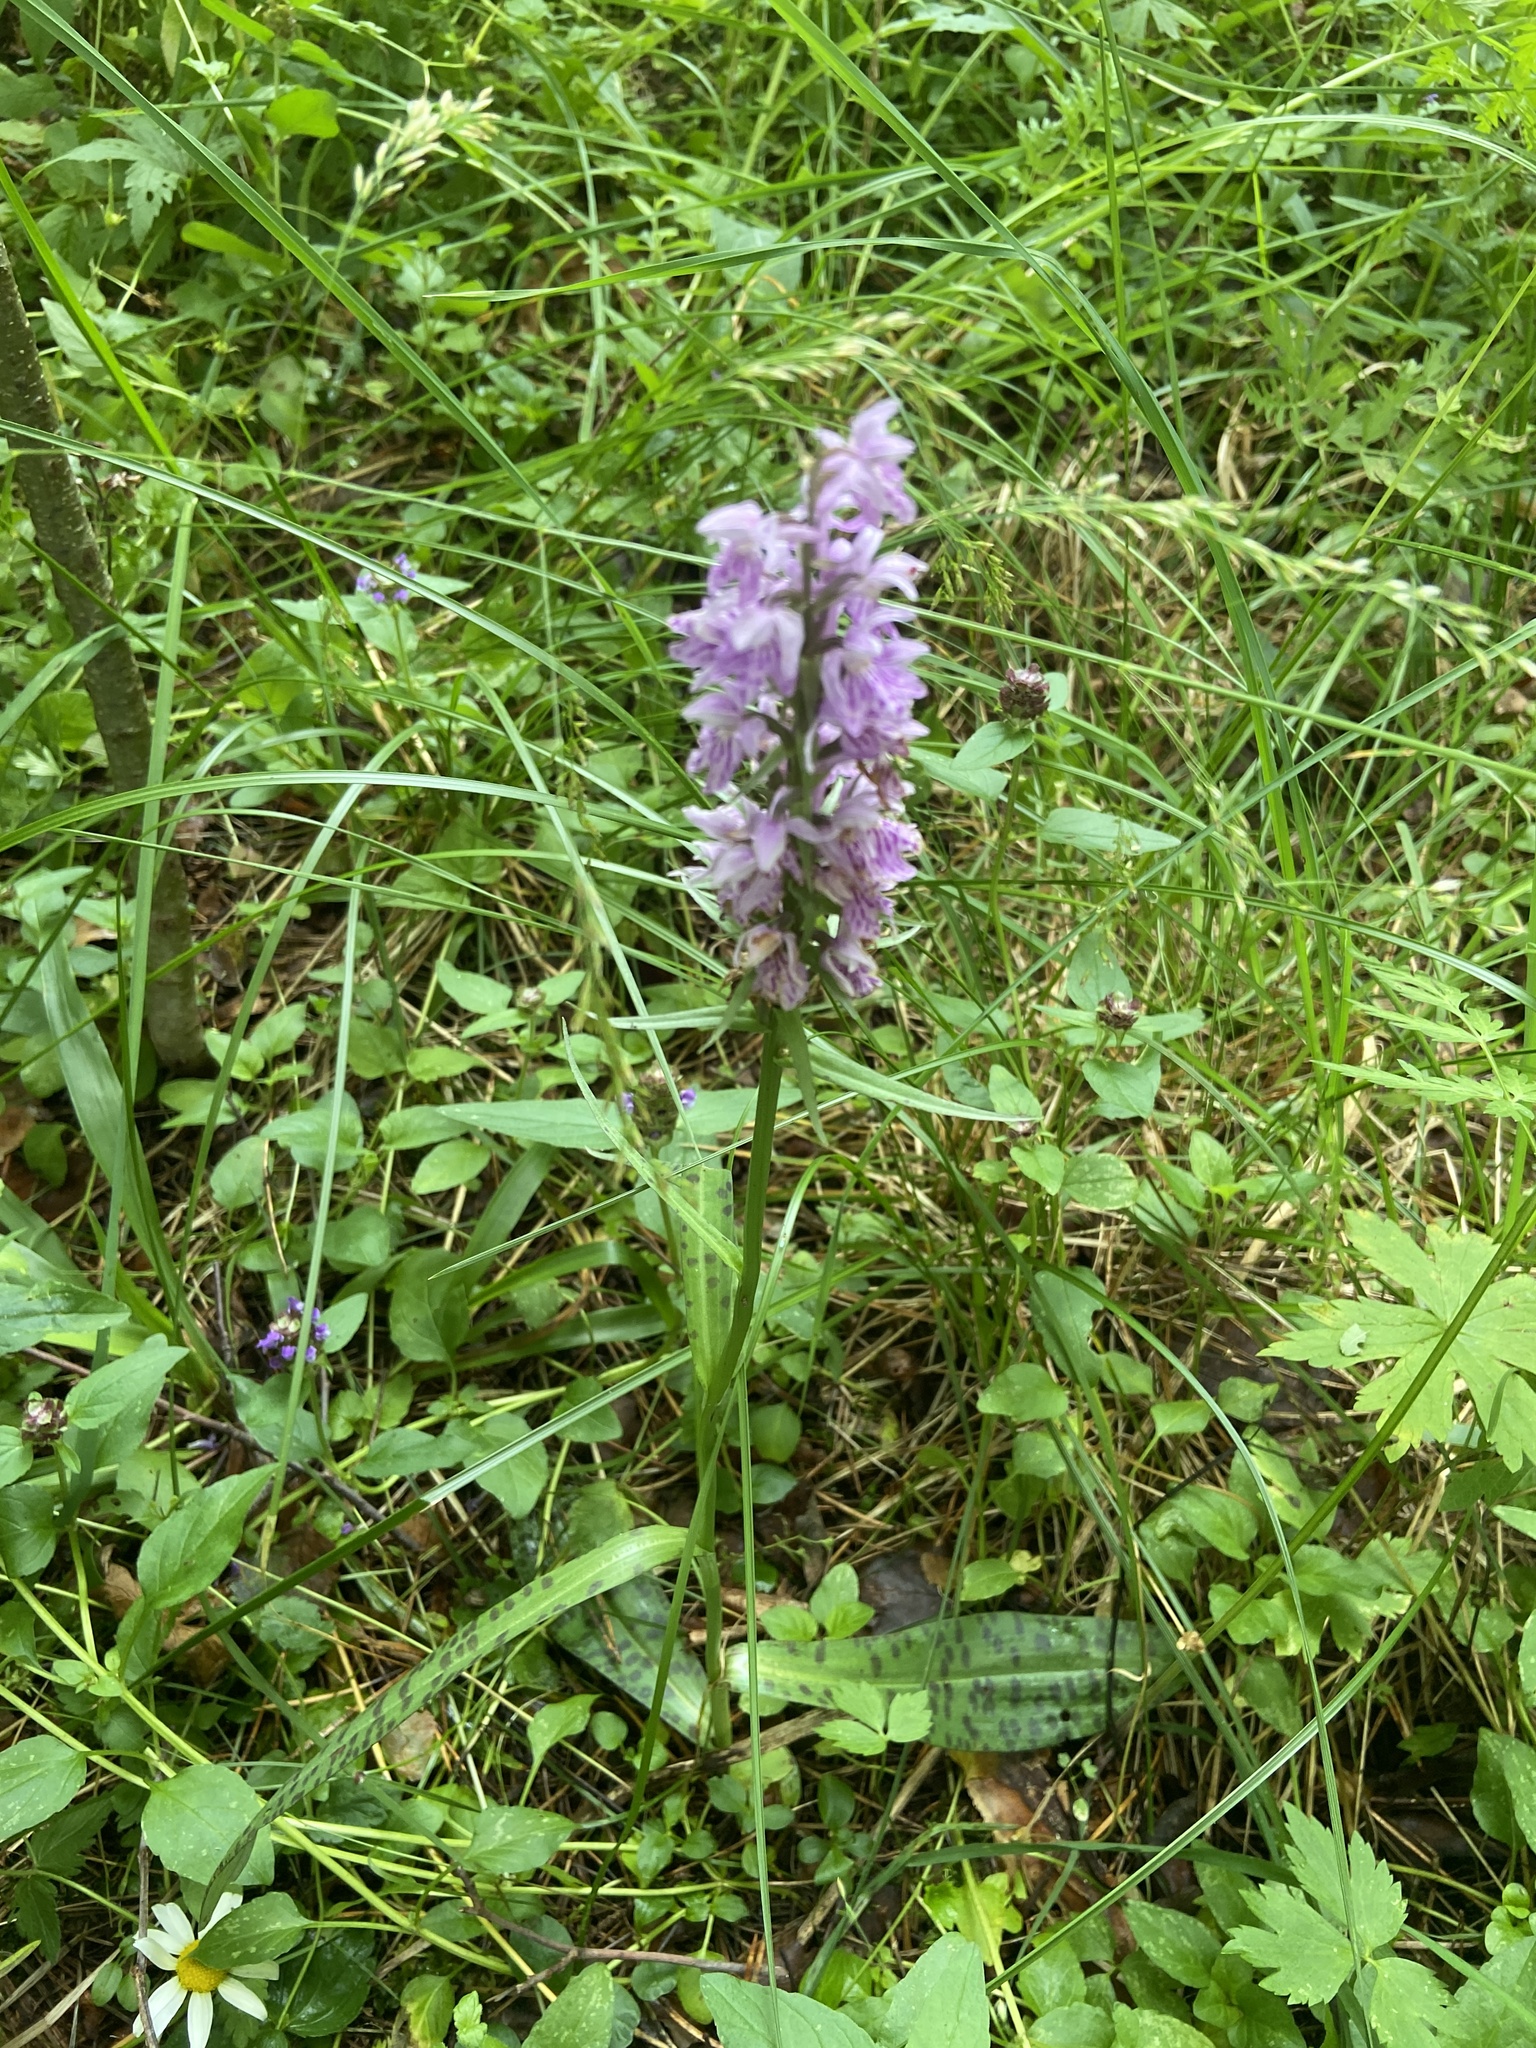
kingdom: Plantae
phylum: Tracheophyta
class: Liliopsida
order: Asparagales
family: Orchidaceae
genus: Dactylorhiza
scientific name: Dactylorhiza maculata
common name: Heath spotted-orchid
